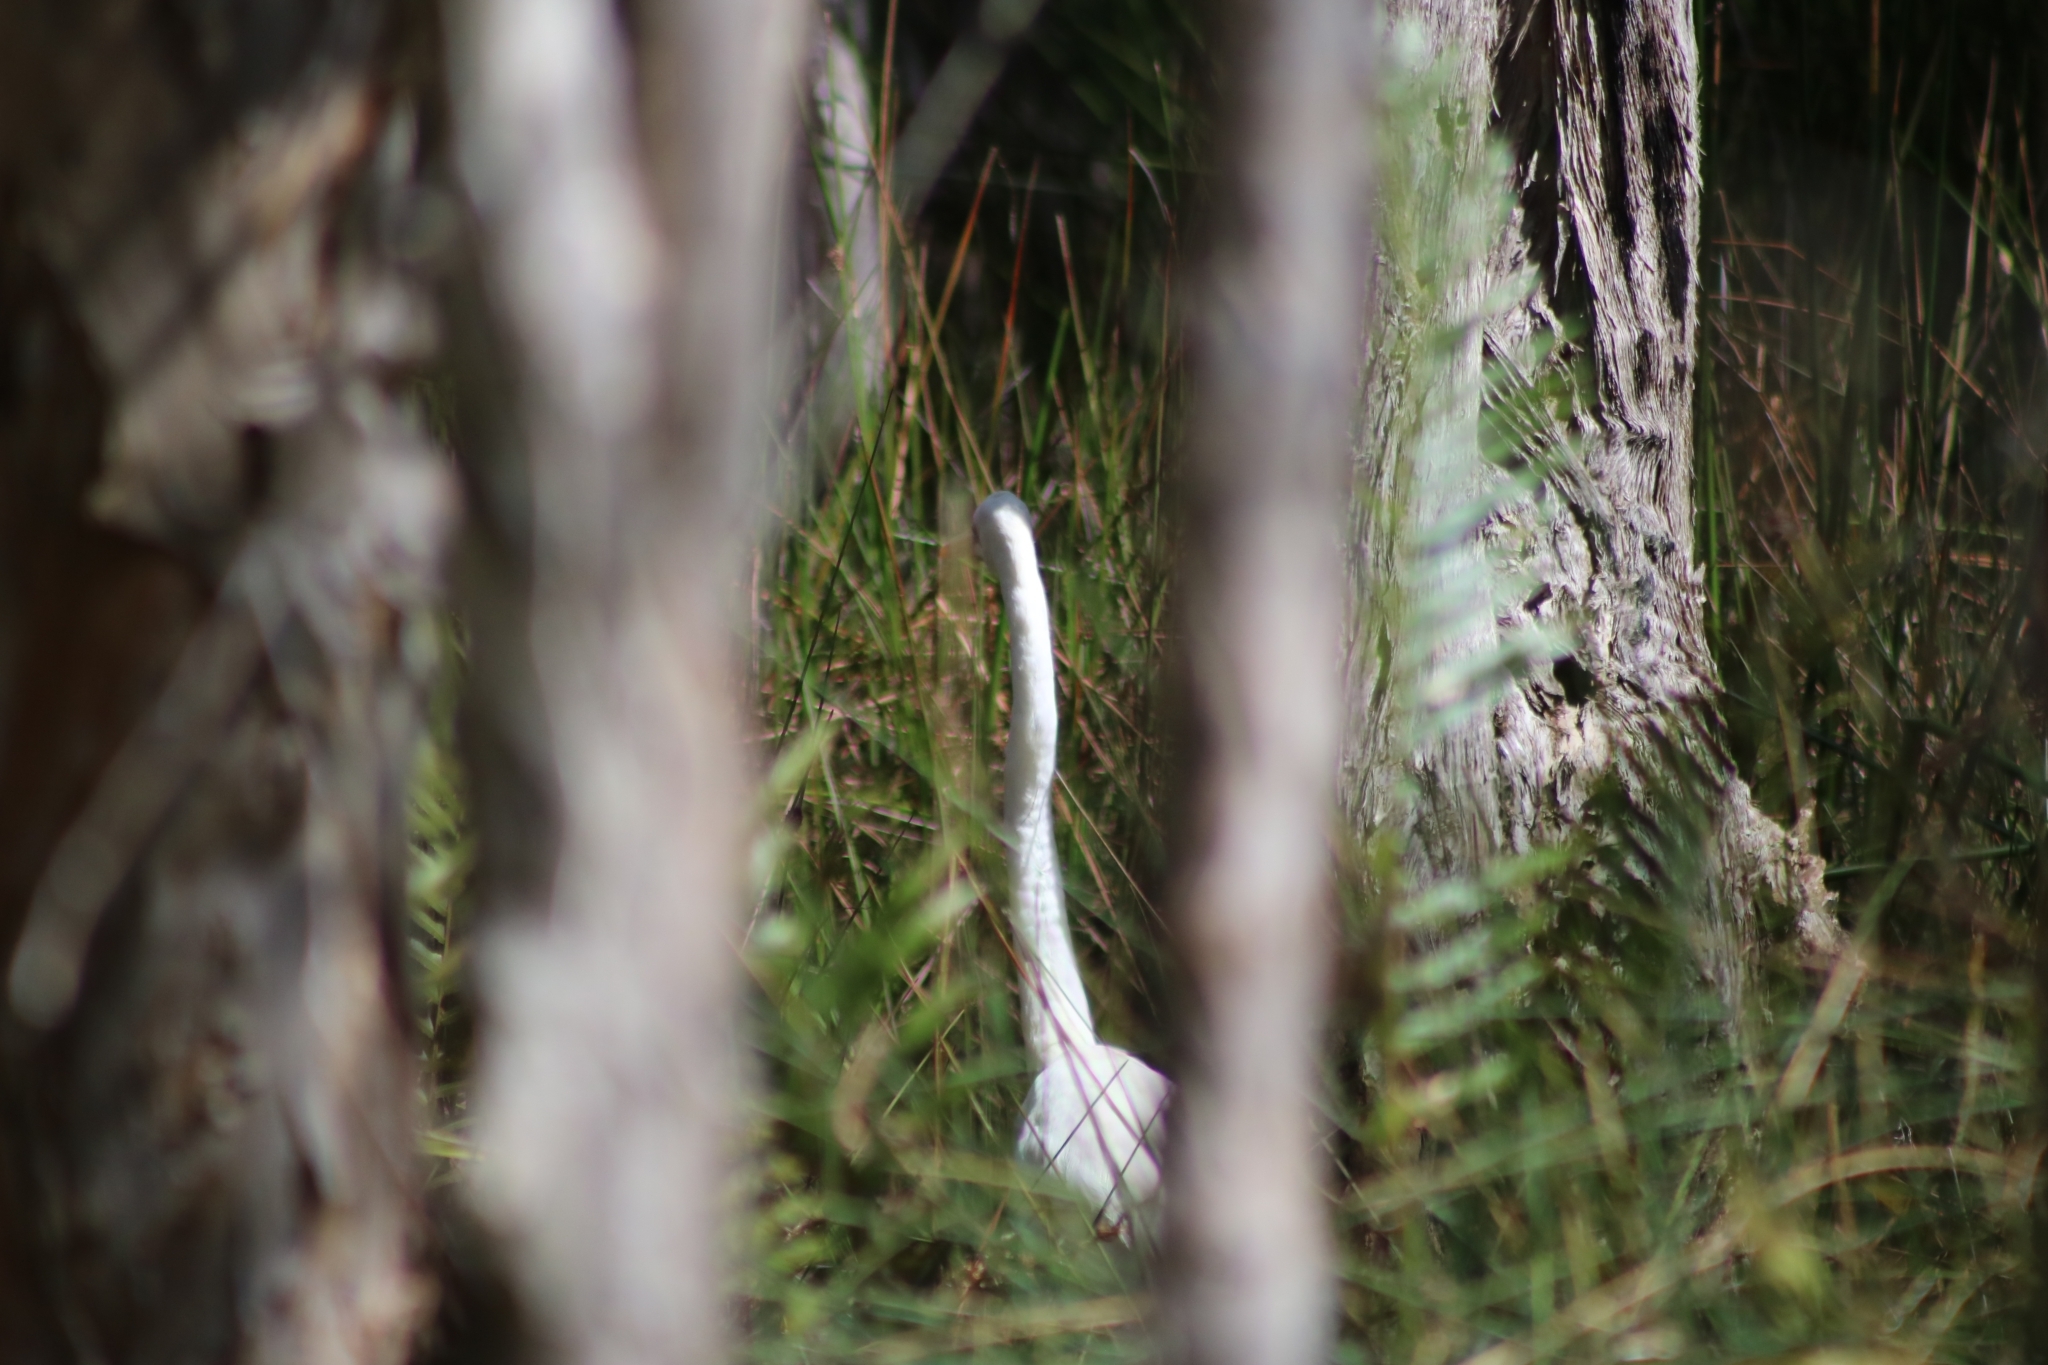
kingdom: Animalia
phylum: Chordata
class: Aves
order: Pelecaniformes
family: Ardeidae
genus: Ardea
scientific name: Ardea alba
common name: Great egret
